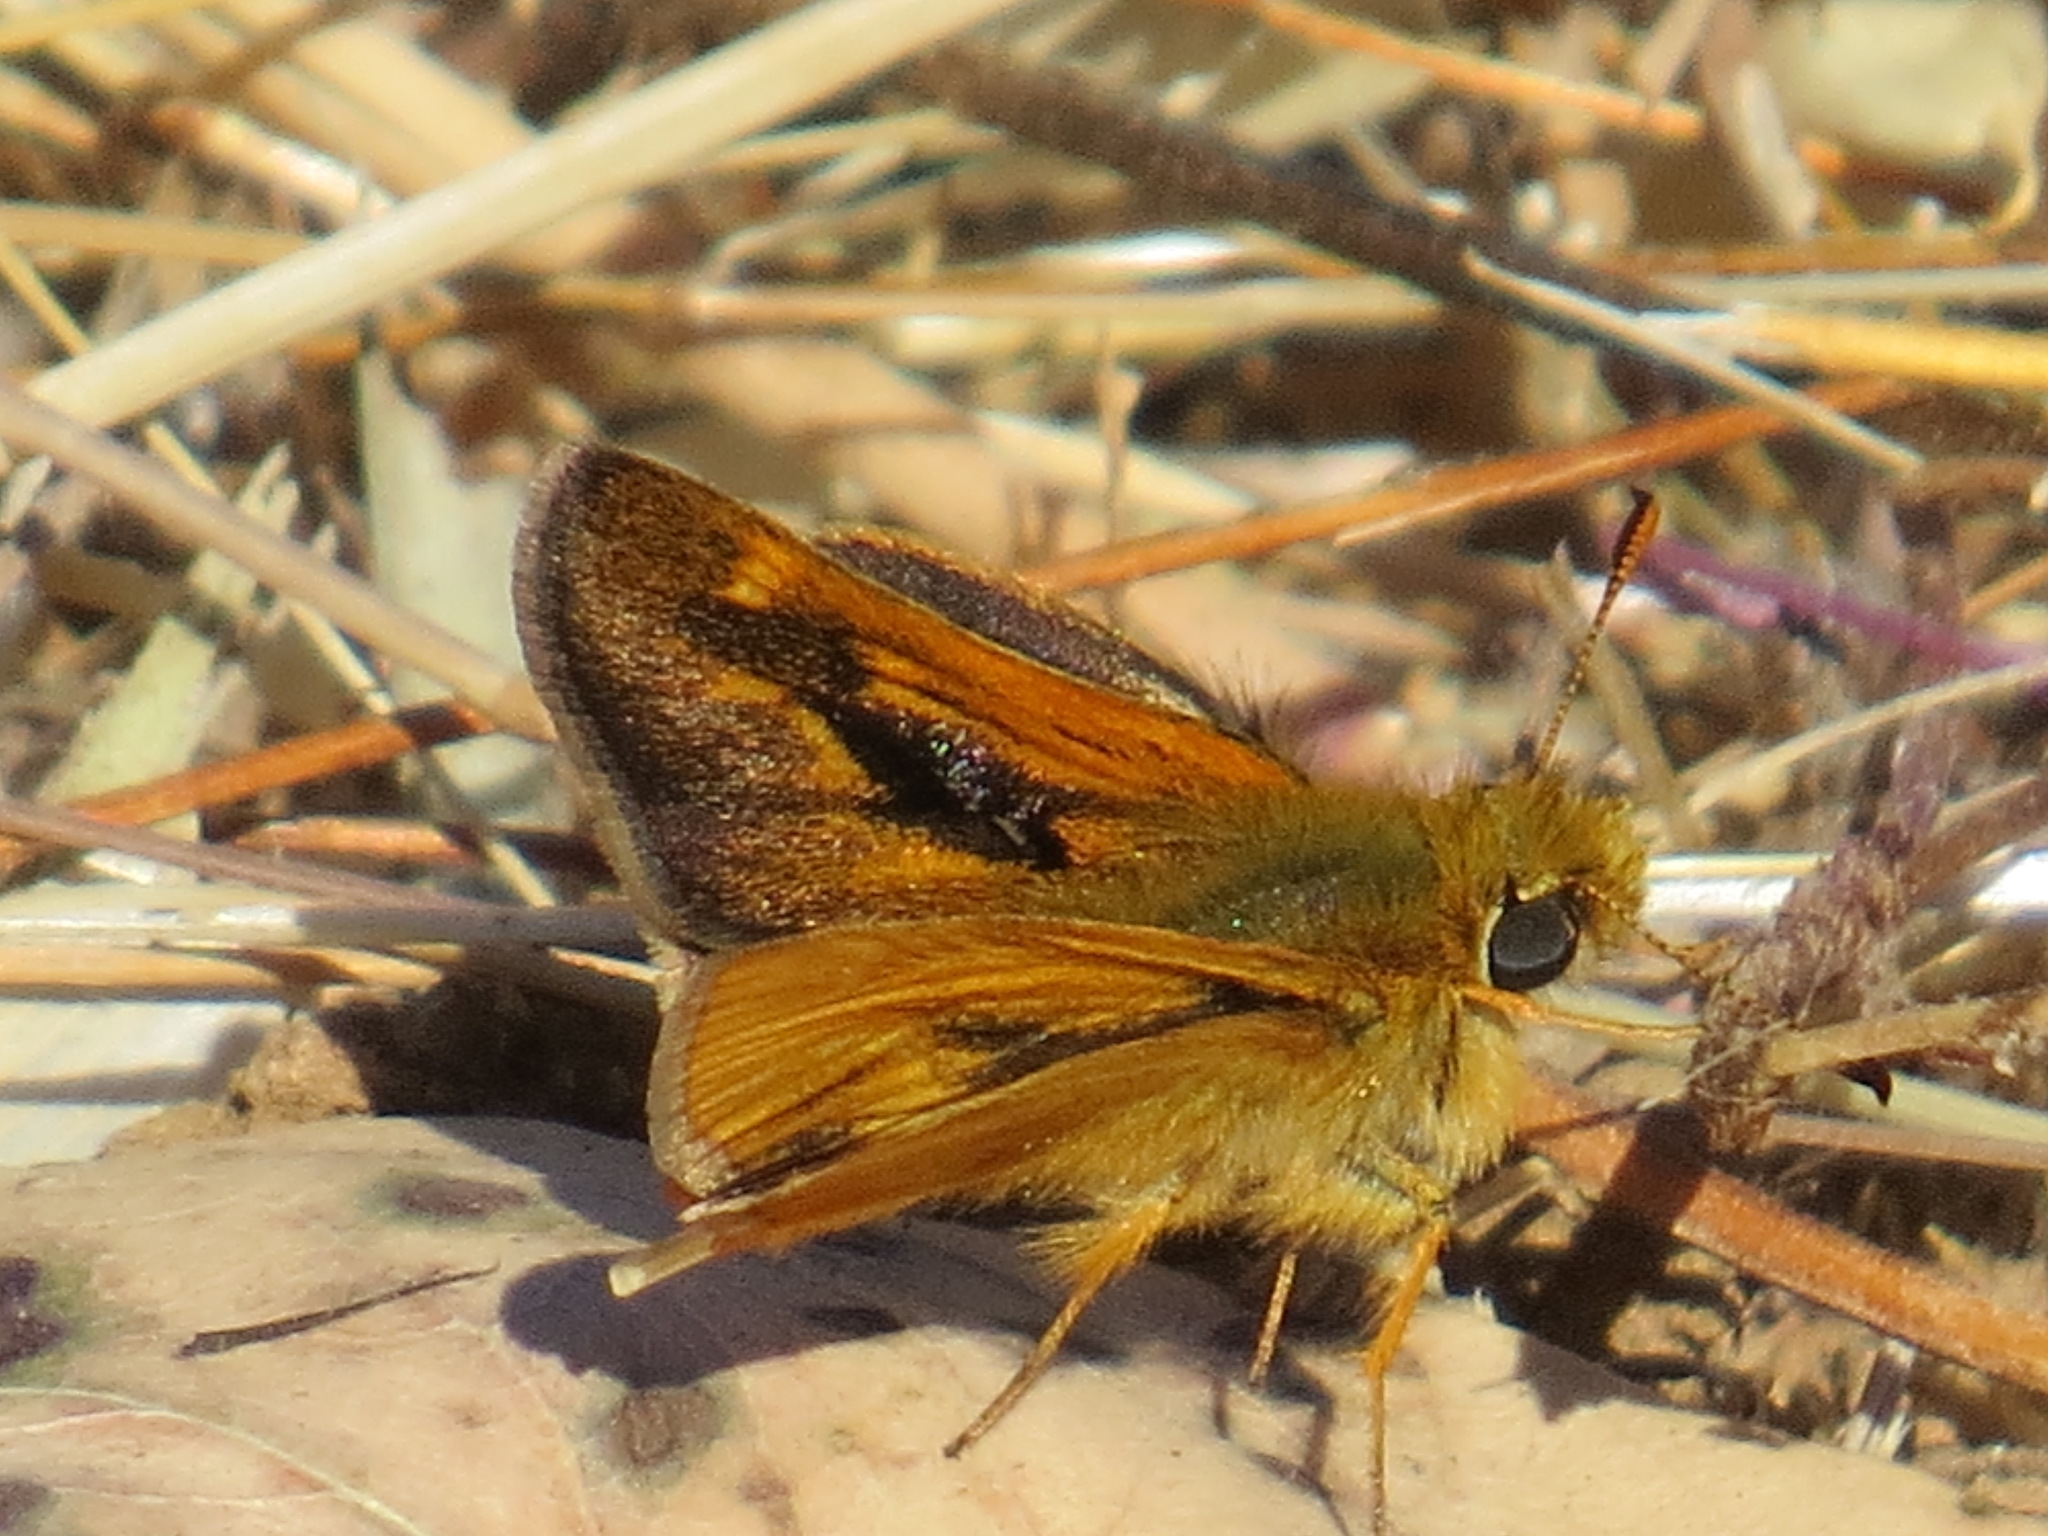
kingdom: Animalia
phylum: Arthropoda
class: Insecta
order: Lepidoptera
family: Hesperiidae
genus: Ochlodes
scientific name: Ochlodes agricola
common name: Rural skipper
